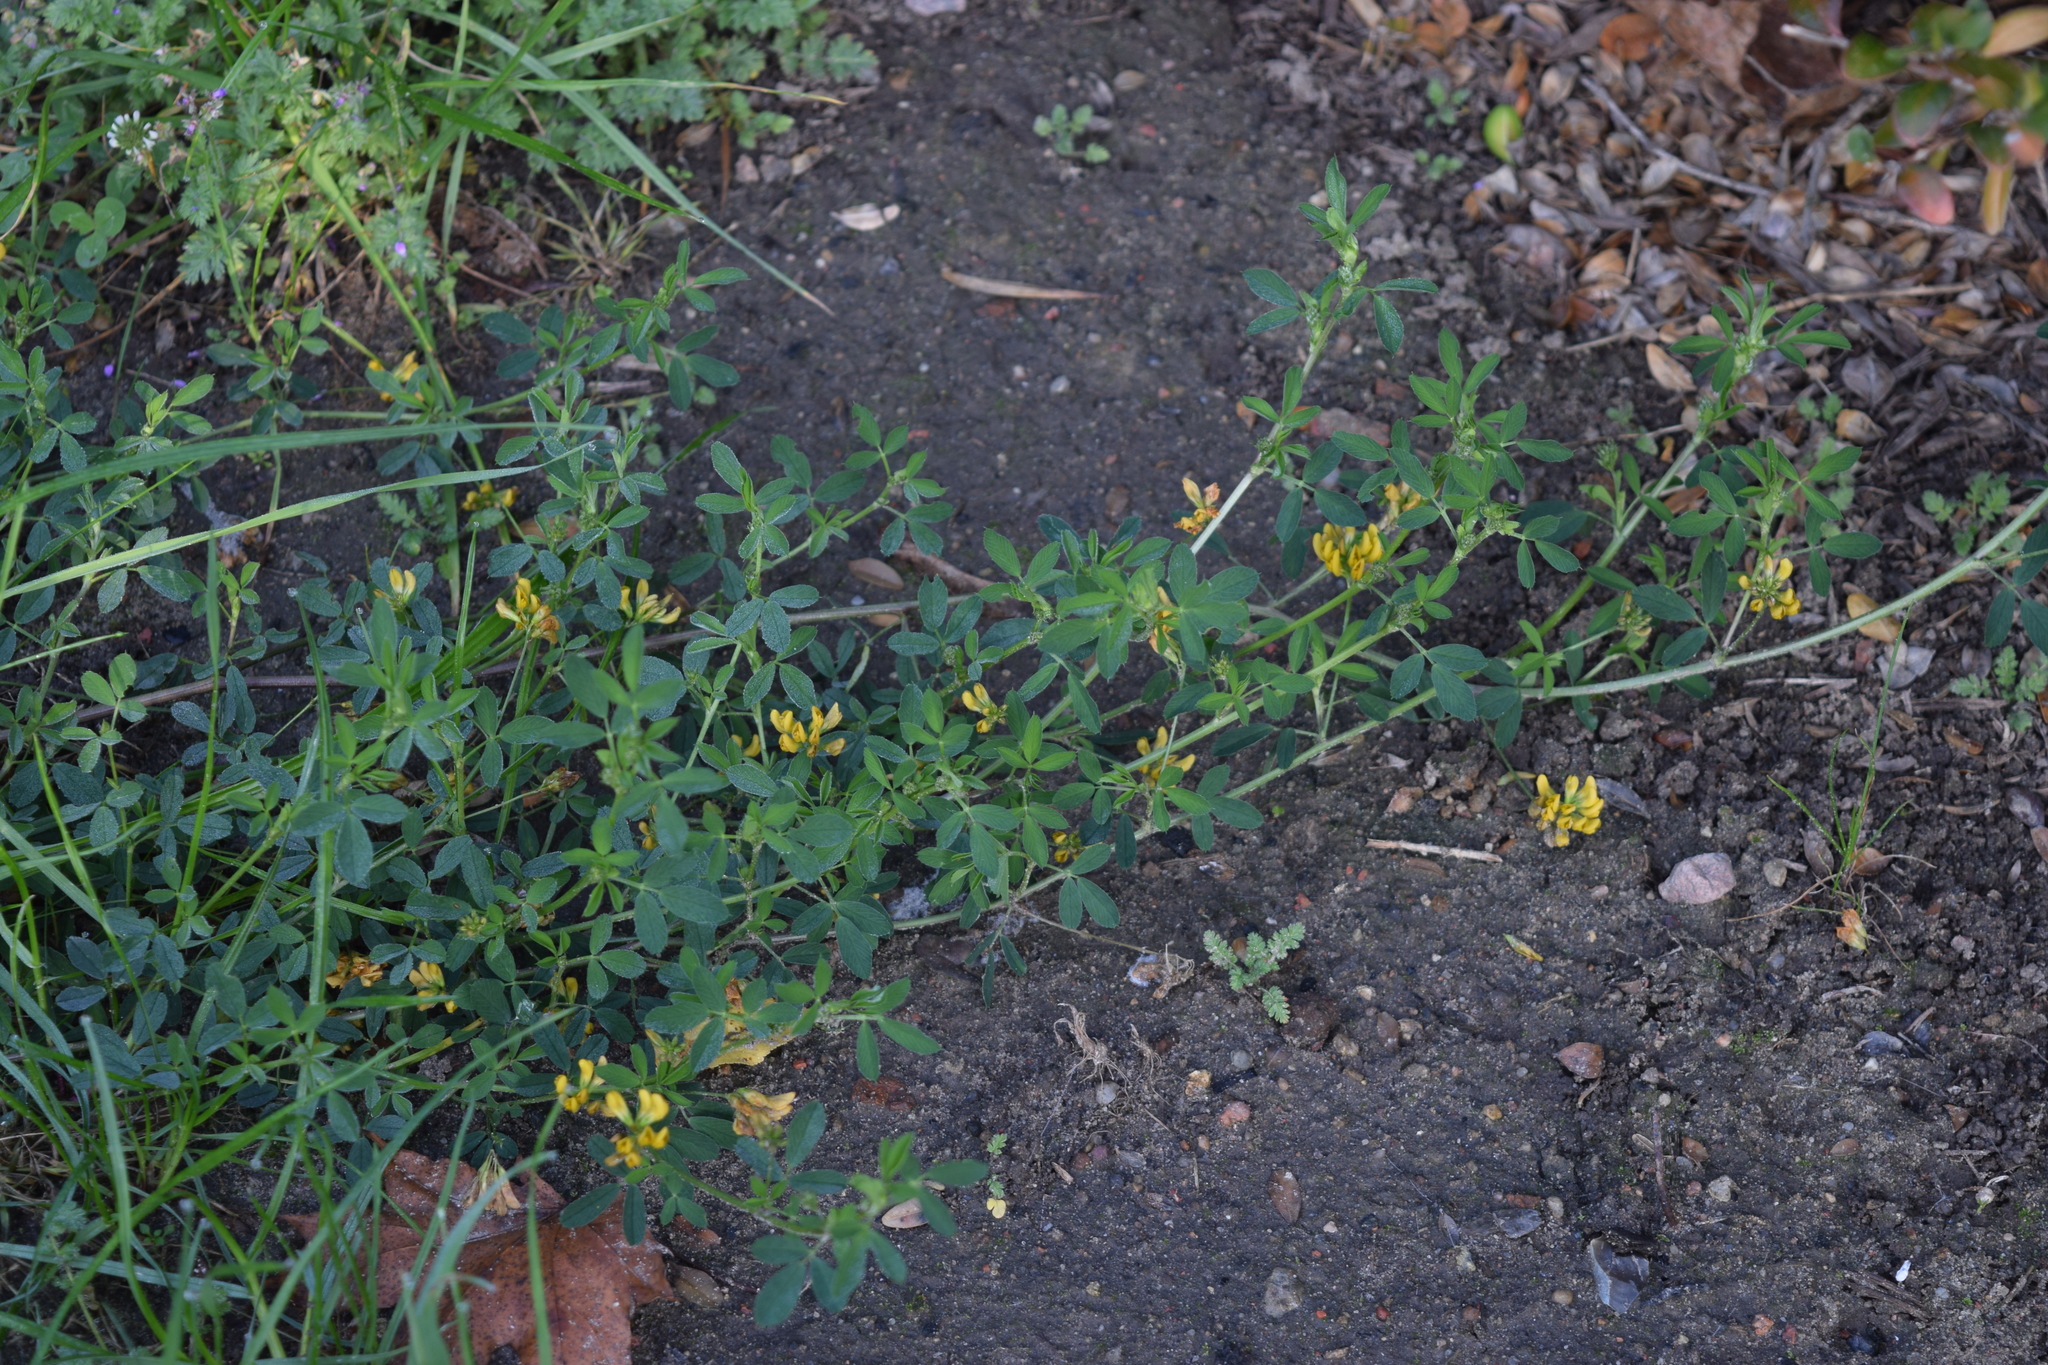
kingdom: Plantae
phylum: Tracheophyta
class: Magnoliopsida
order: Fabales
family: Fabaceae
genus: Medicago
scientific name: Medicago falcata
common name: Sickle medick
